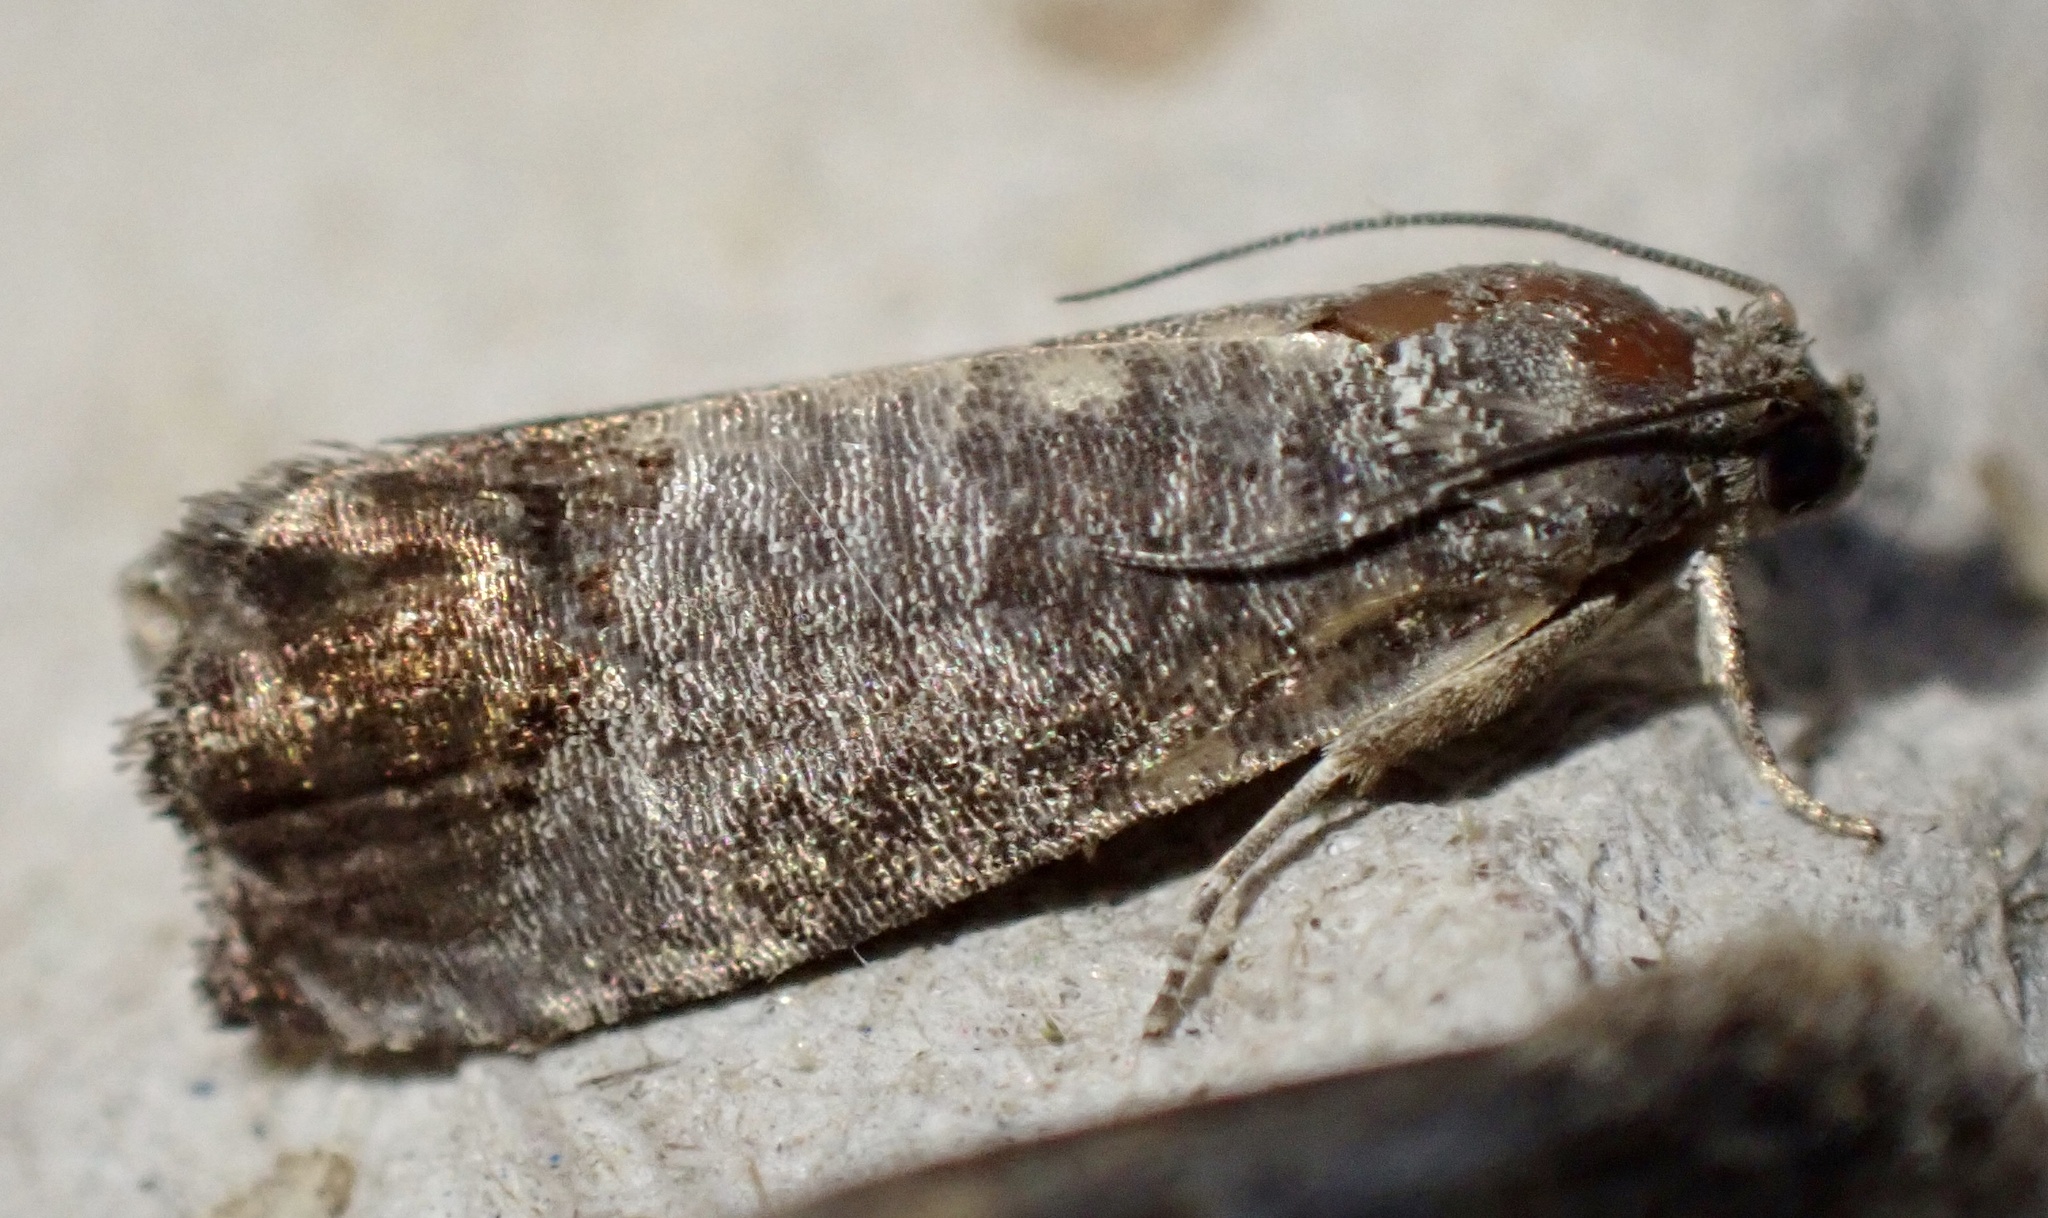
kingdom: Animalia
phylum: Arthropoda
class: Insecta
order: Lepidoptera
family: Tortricidae
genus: Cydia
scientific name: Cydia pomonella
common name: Codling moth
